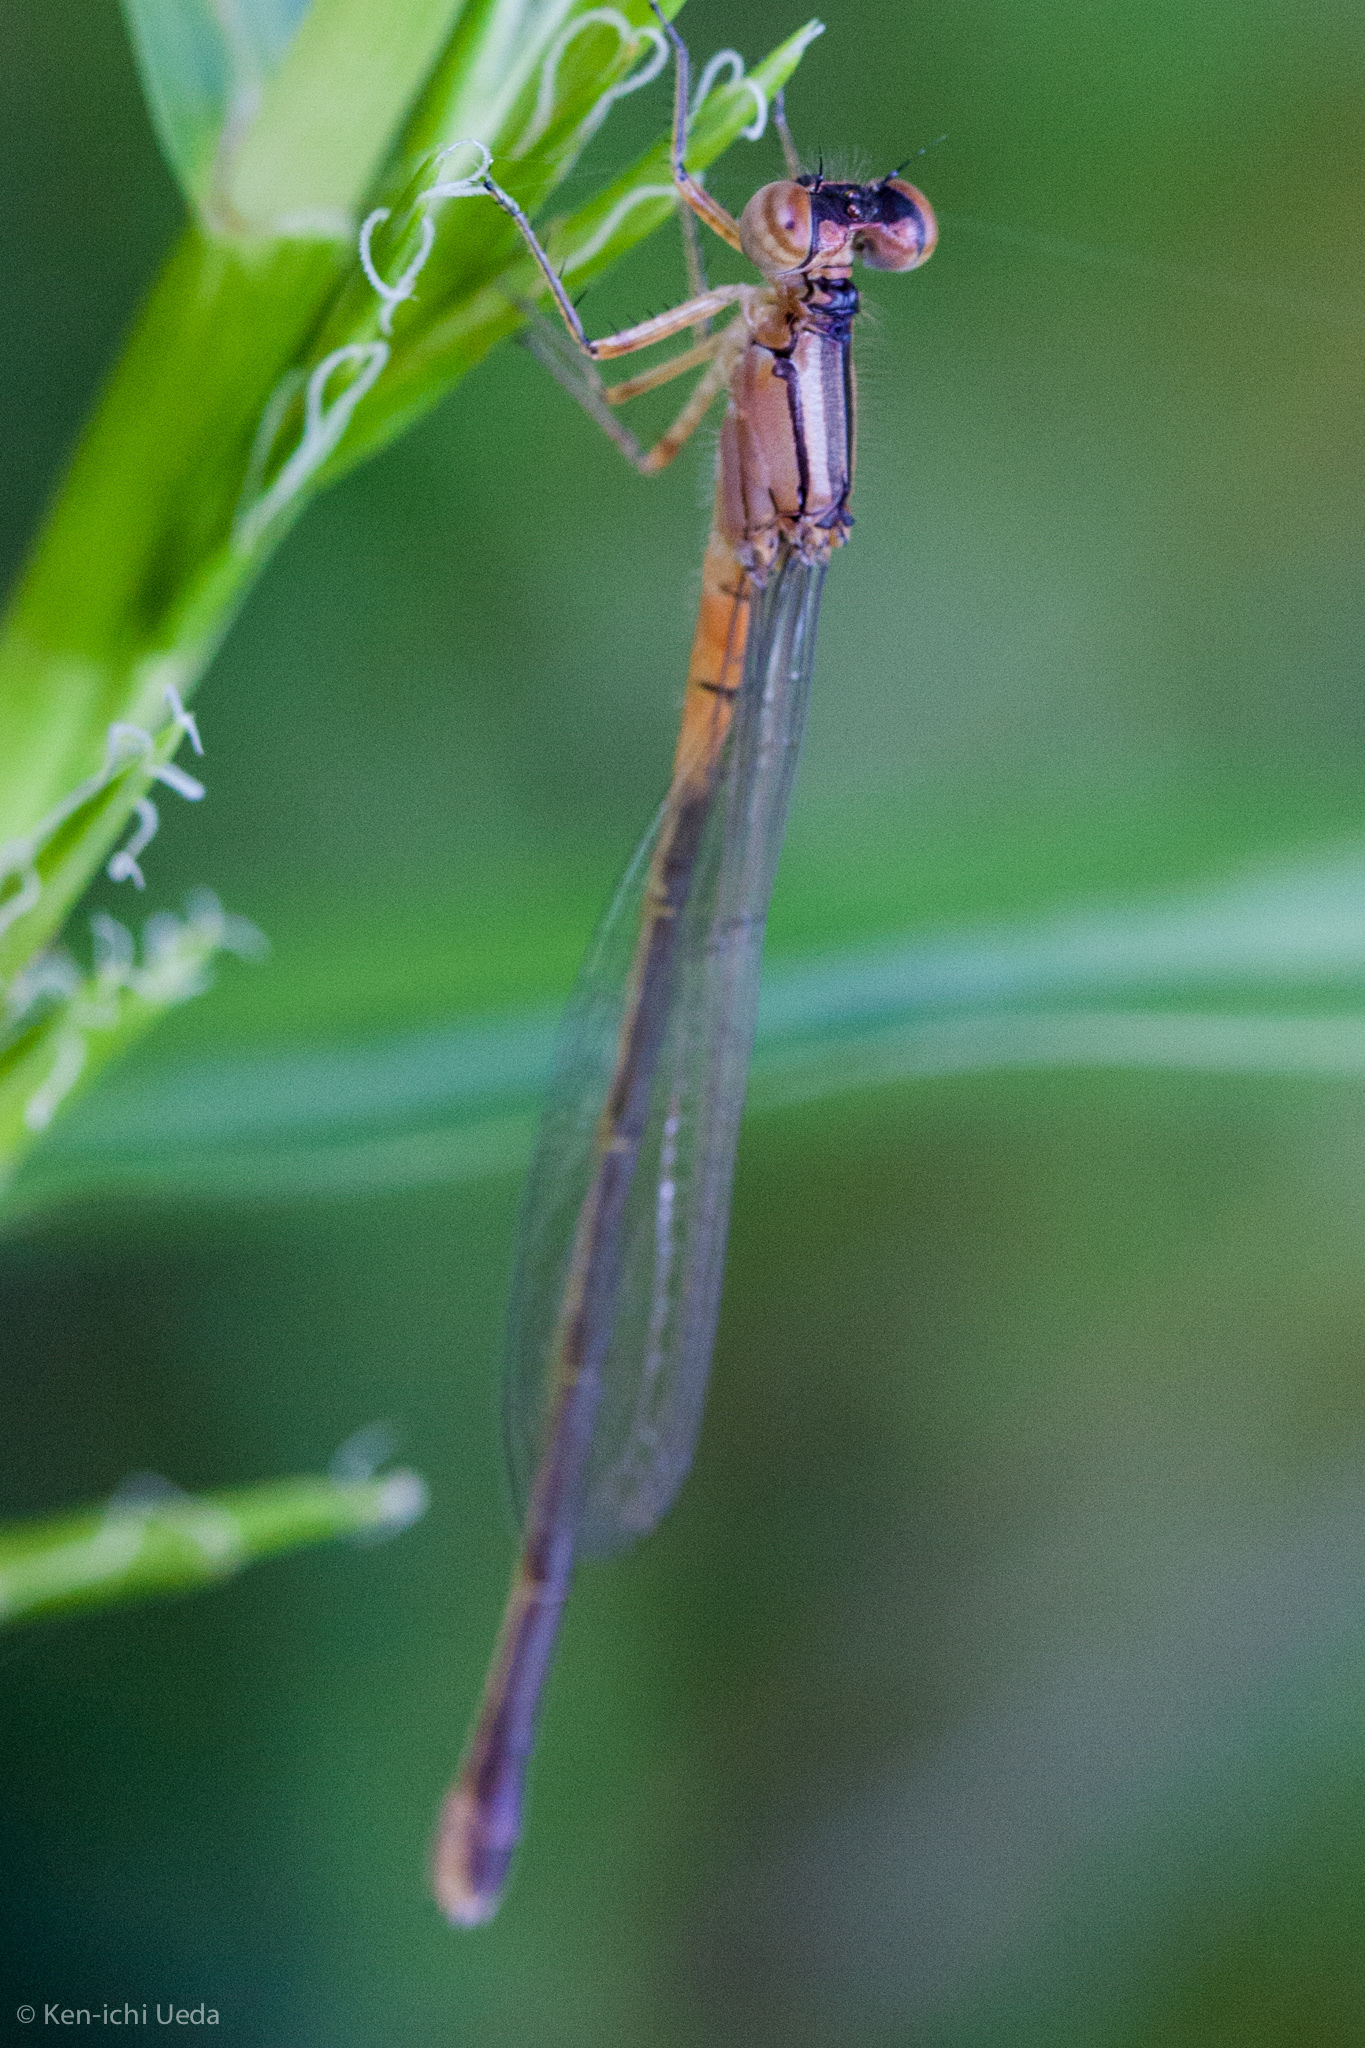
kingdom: Animalia
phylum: Arthropoda
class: Insecta
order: Odonata
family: Coenagrionidae
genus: Ischnura
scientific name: Ischnura verticalis
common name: Eastern forktail
